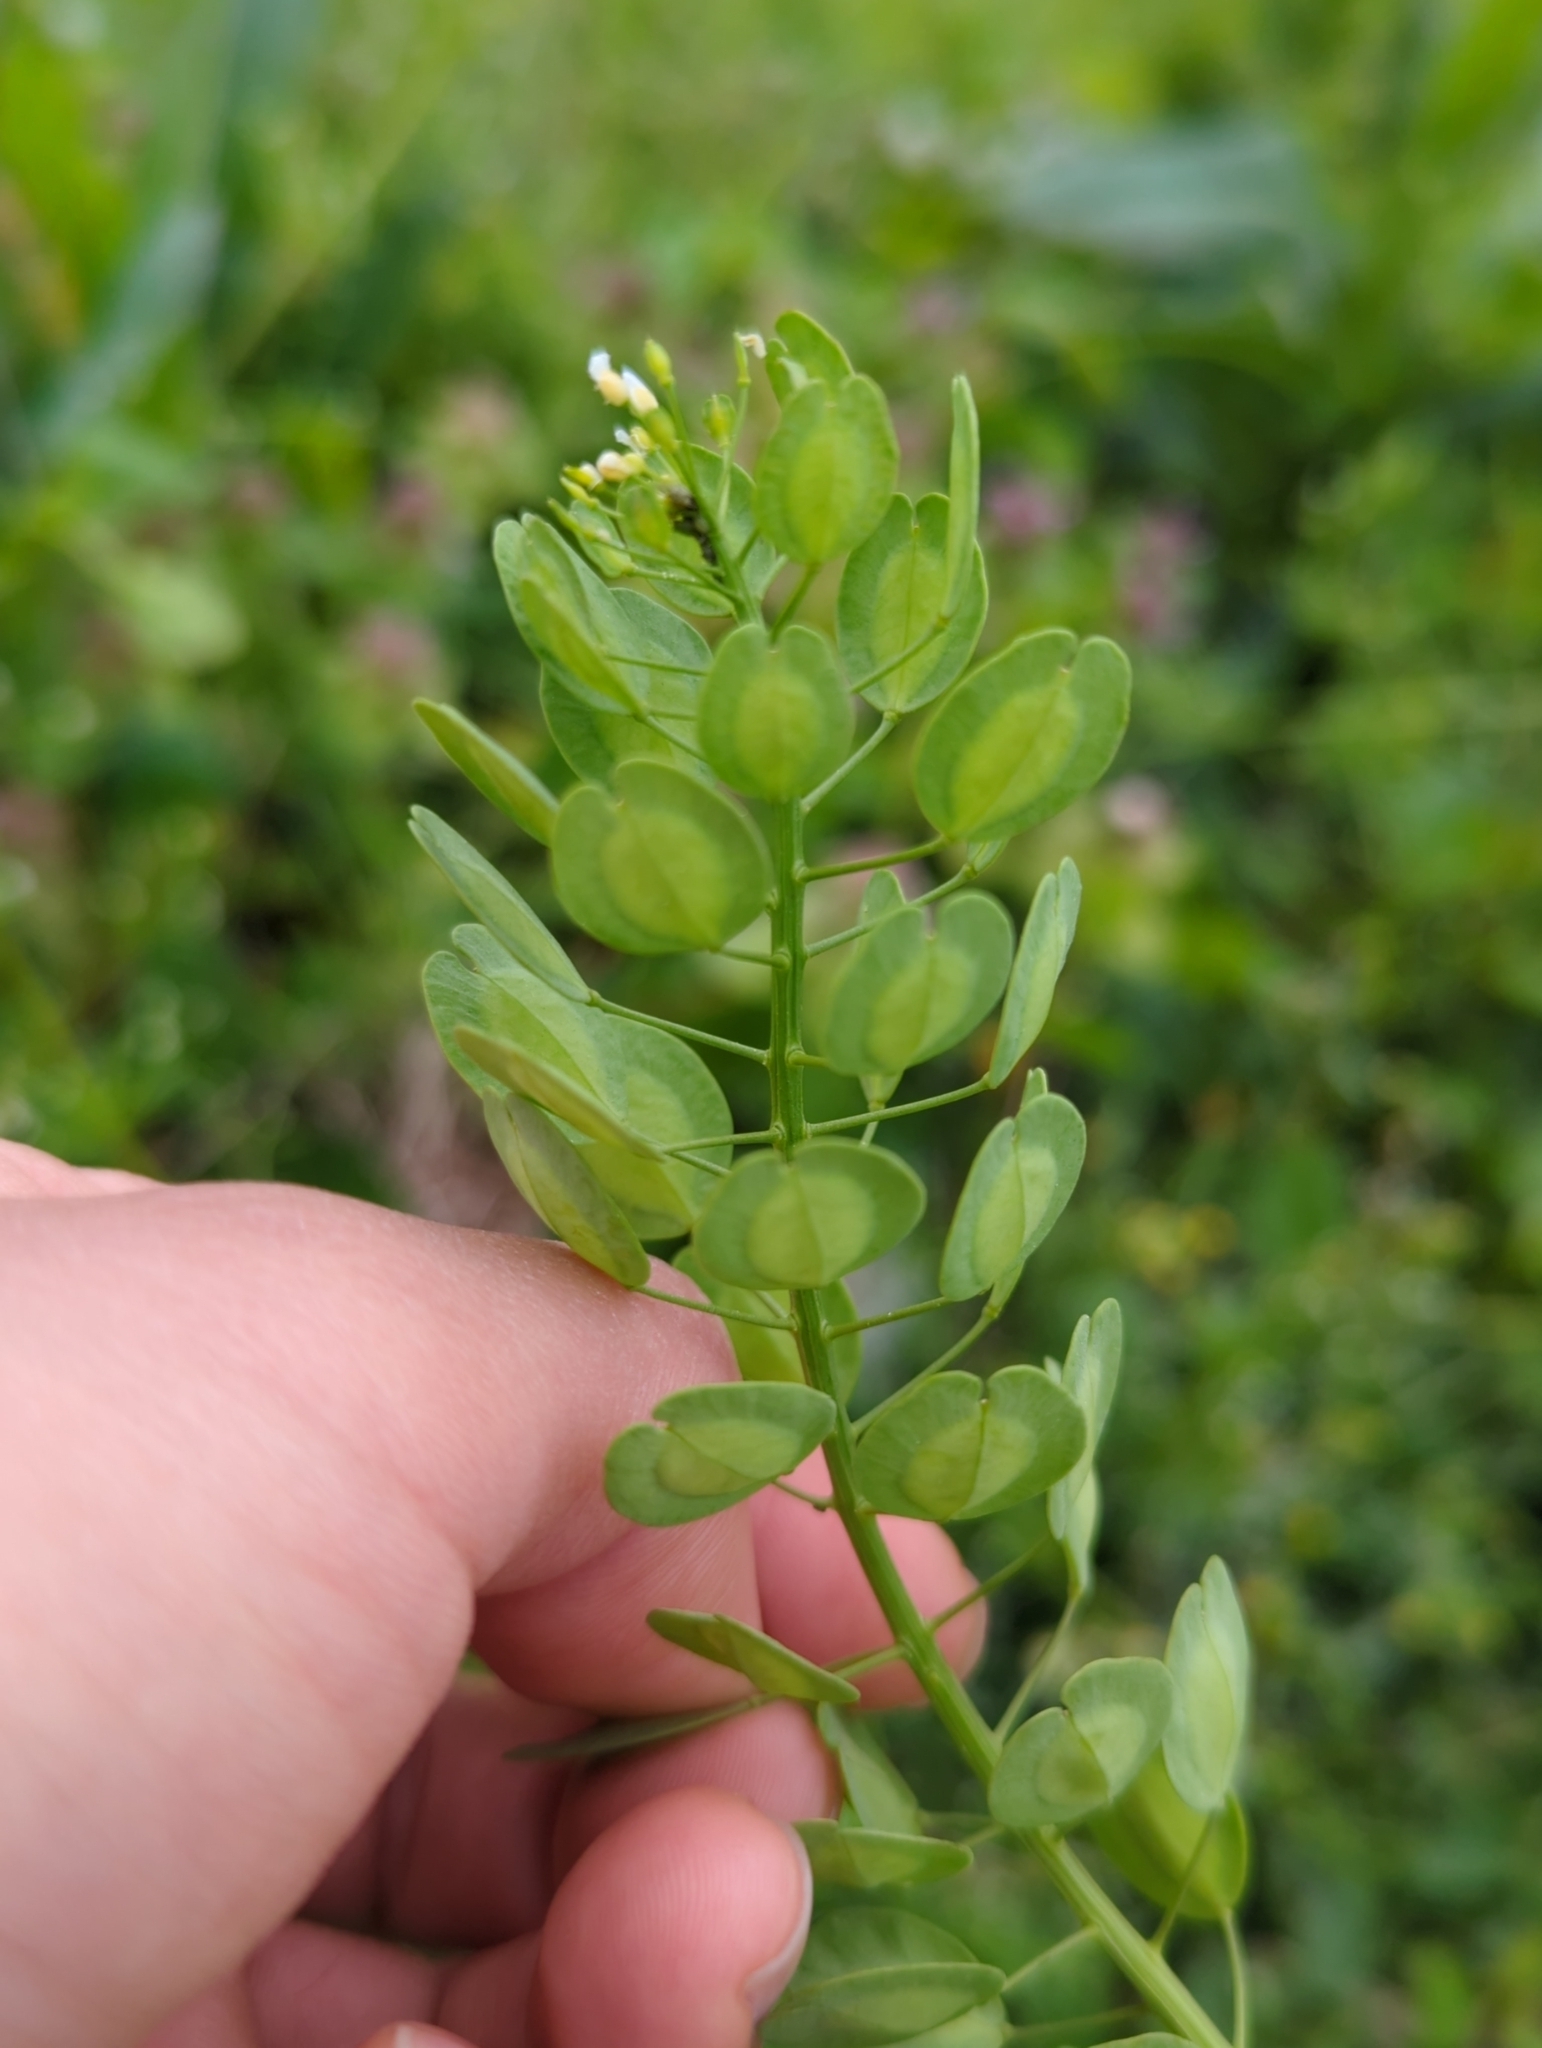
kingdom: Plantae
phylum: Tracheophyta
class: Magnoliopsida
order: Brassicales
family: Brassicaceae
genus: Thlaspi
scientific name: Thlaspi arvense
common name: Field pennycress
